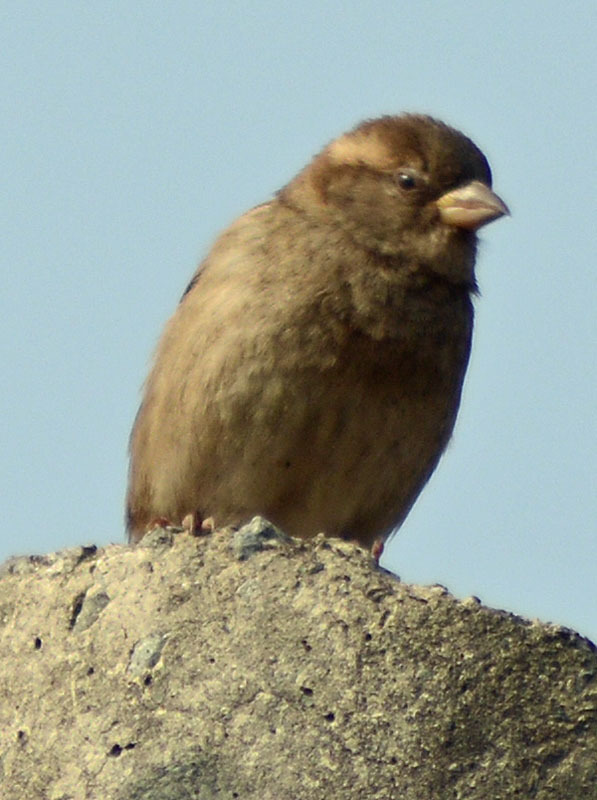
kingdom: Animalia
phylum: Chordata
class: Aves
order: Passeriformes
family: Passeridae
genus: Passer
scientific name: Passer domesticus
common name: House sparrow
